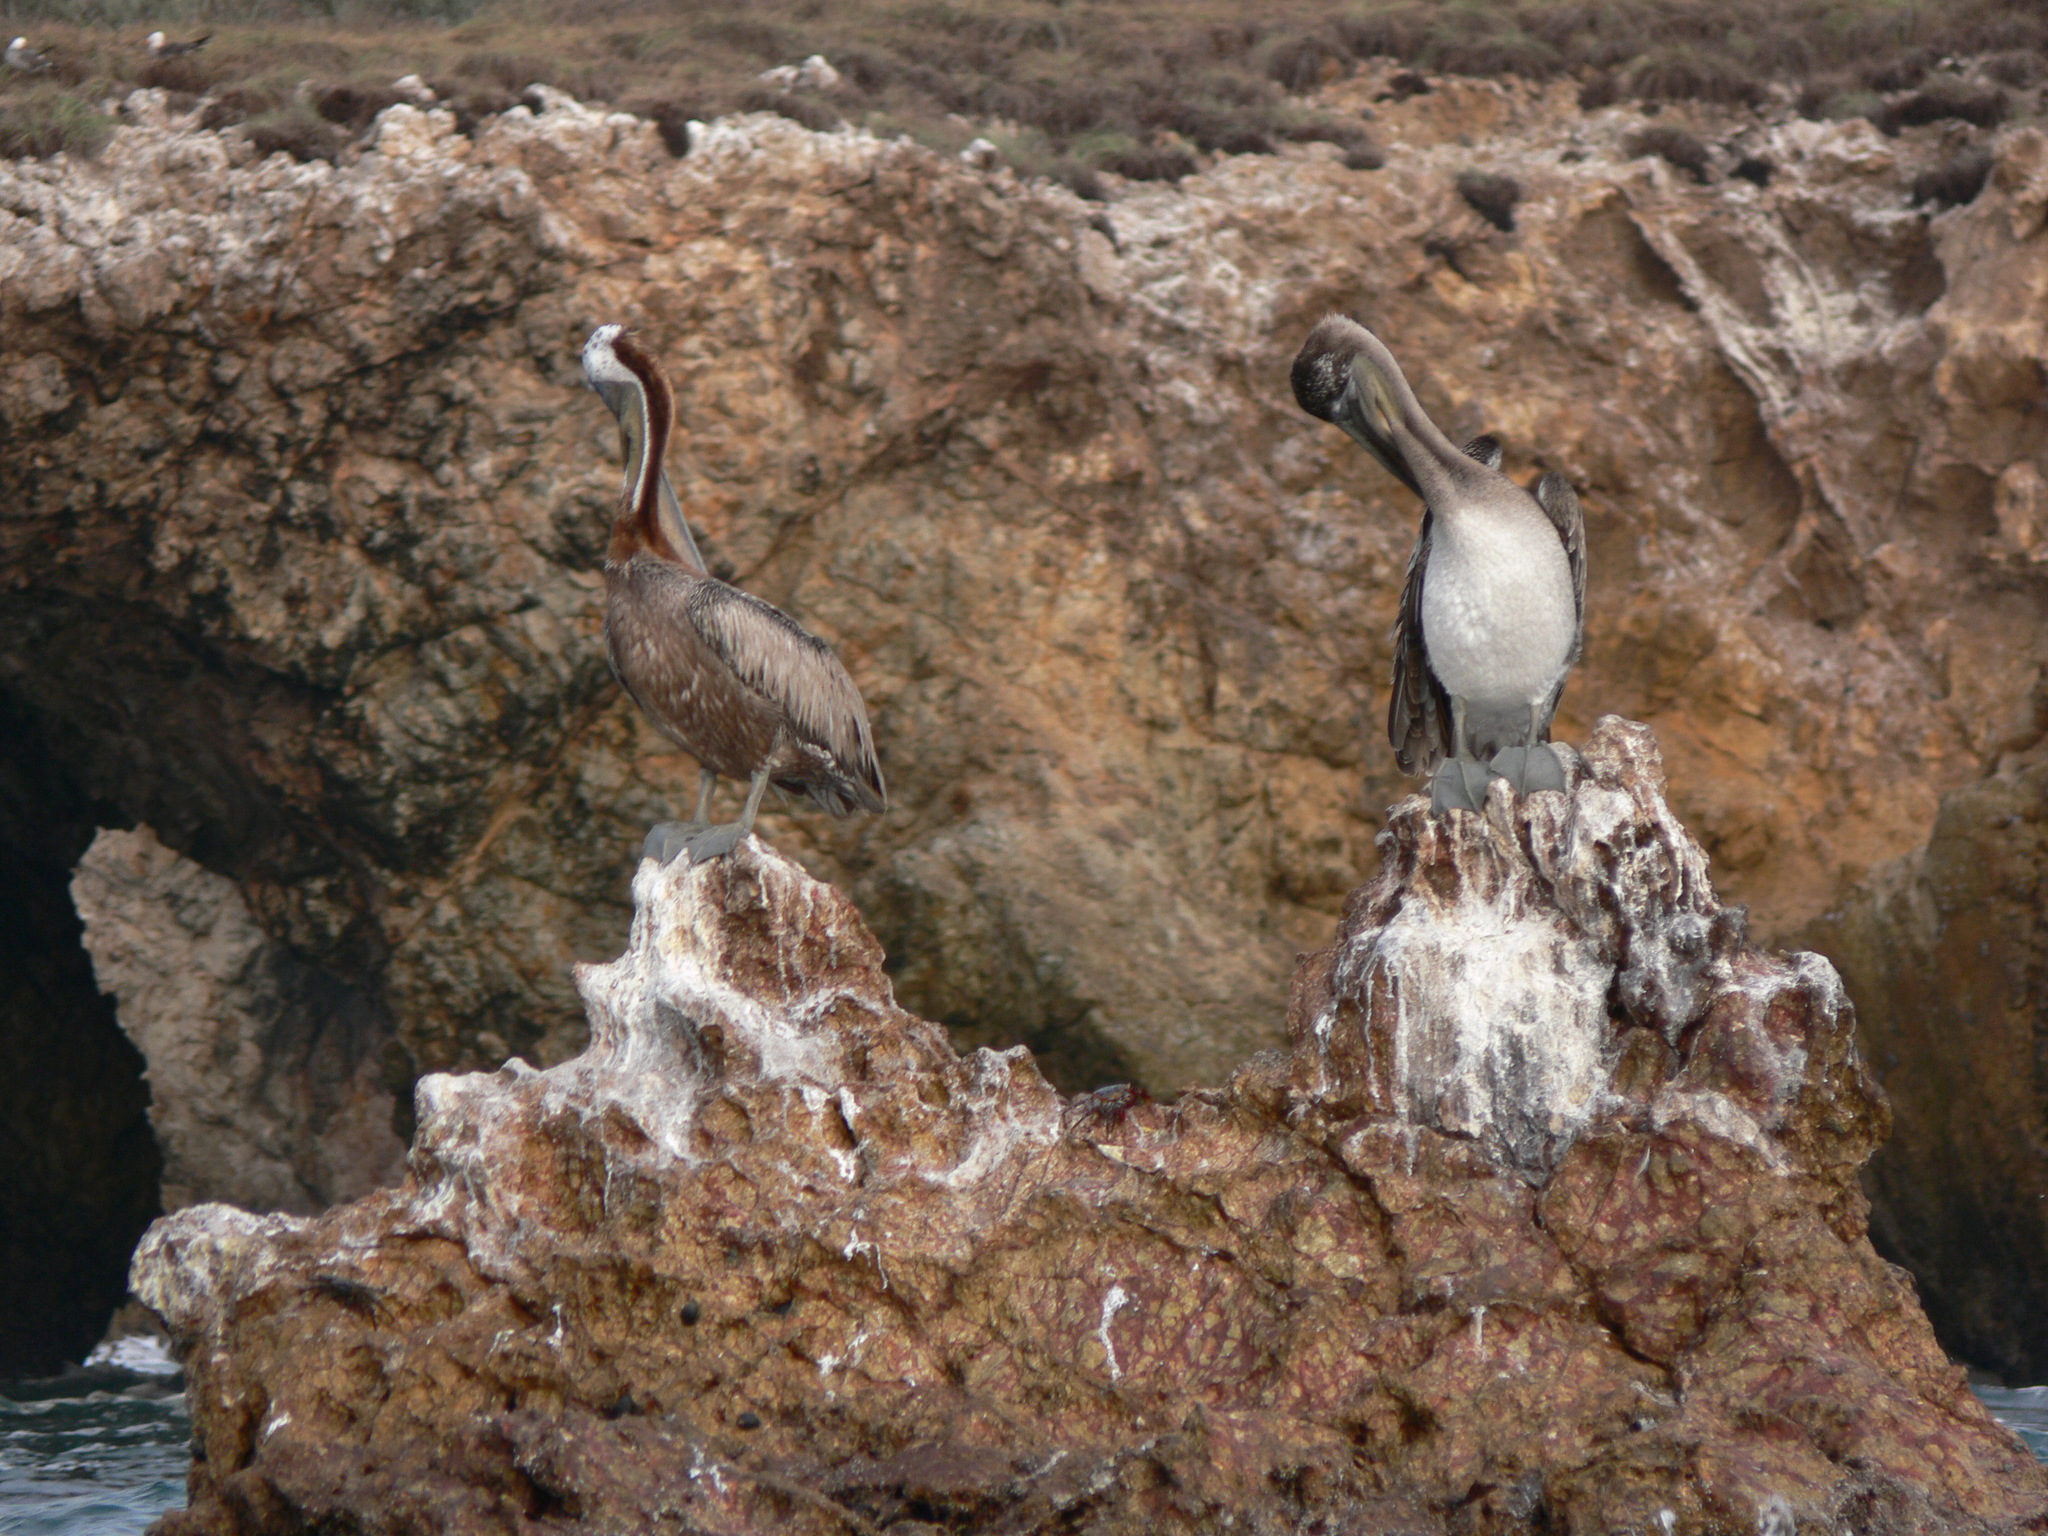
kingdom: Animalia
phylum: Chordata
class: Aves
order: Pelecaniformes
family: Pelecanidae
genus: Pelecanus
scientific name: Pelecanus occidentalis
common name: Brown pelican
